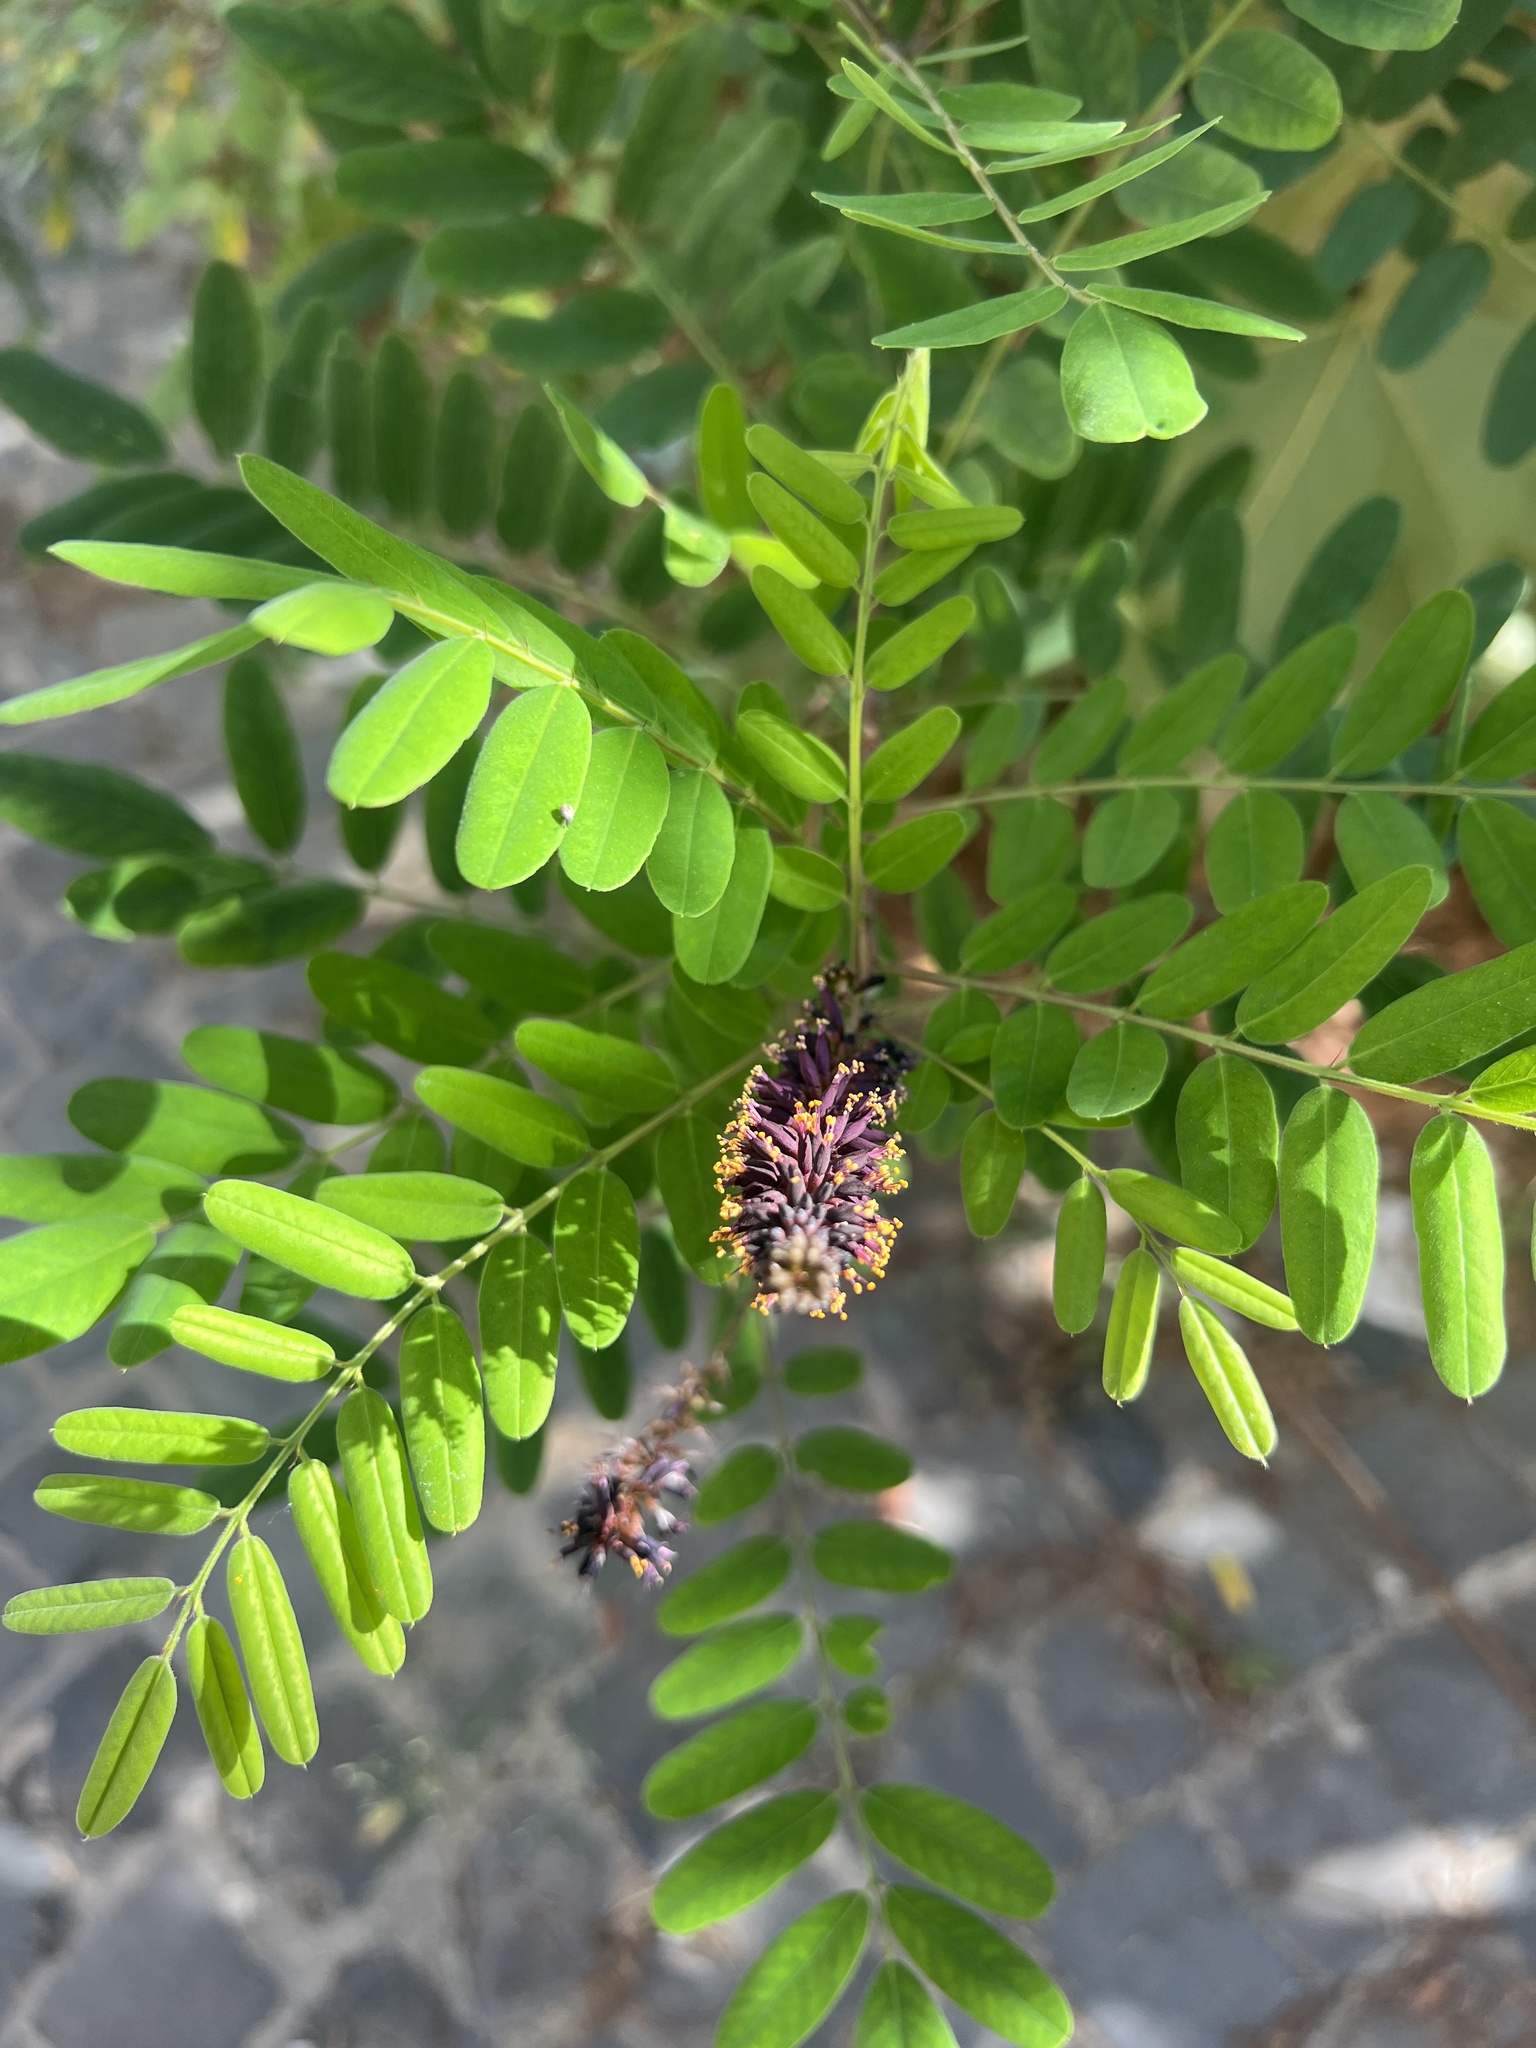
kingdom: Plantae
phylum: Tracheophyta
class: Magnoliopsida
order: Fabales
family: Fabaceae
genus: Amorpha
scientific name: Amorpha fruticosa
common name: False indigo
